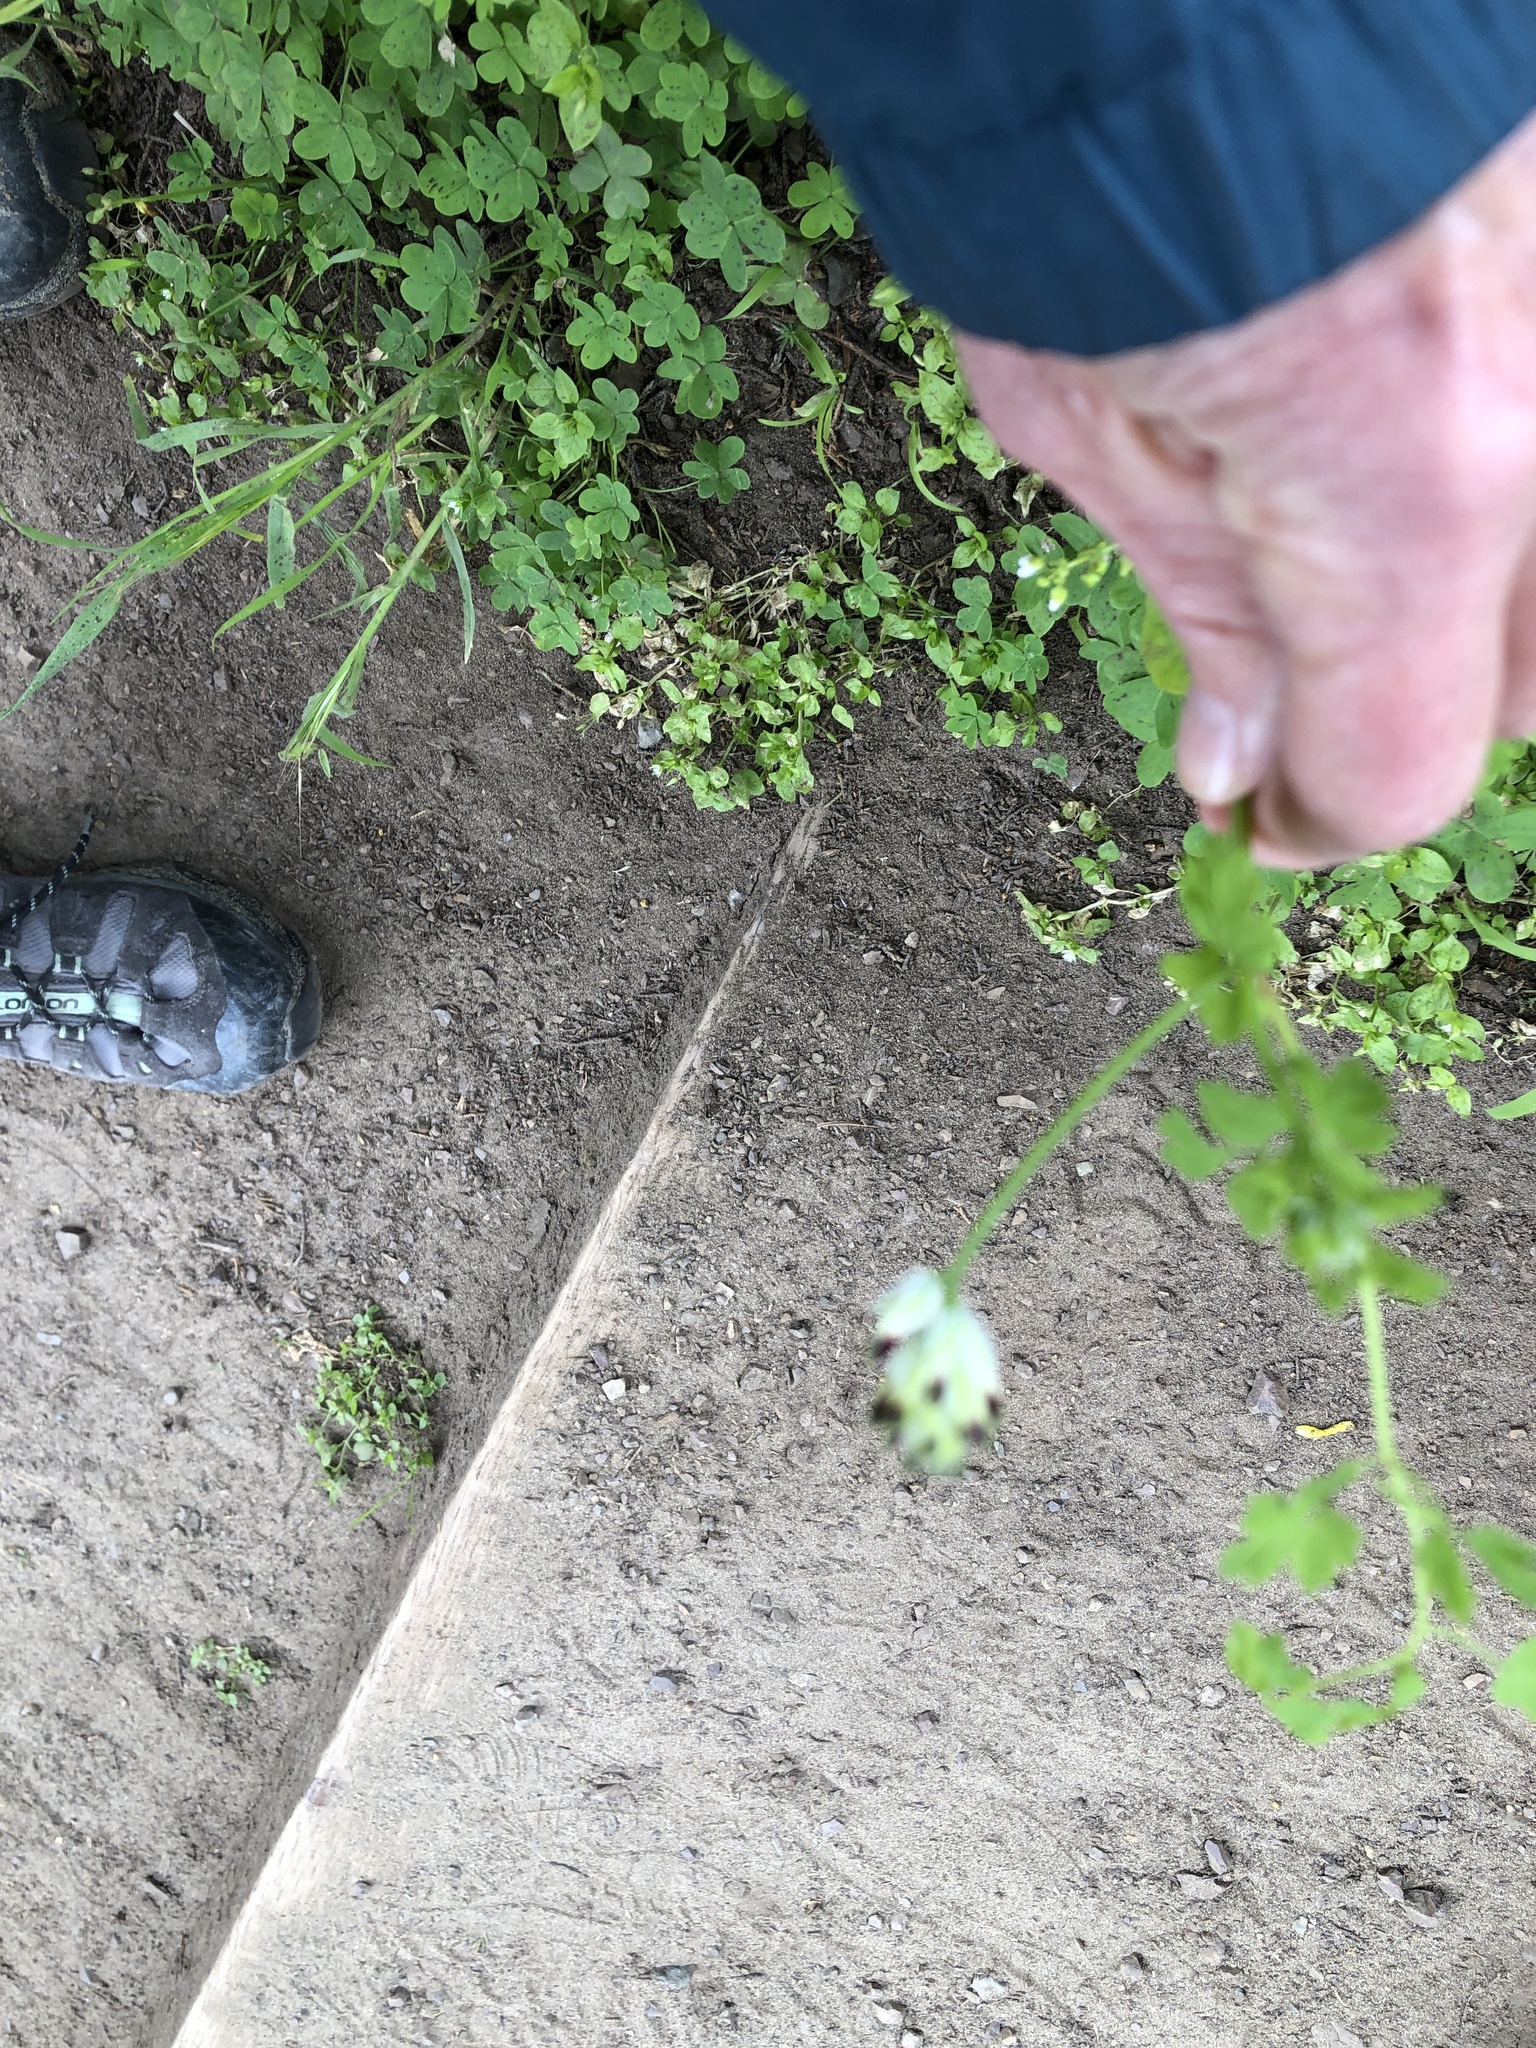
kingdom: Plantae
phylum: Tracheophyta
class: Magnoliopsida
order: Ranunculales
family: Papaveraceae
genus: Fumaria
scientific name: Fumaria capreolata
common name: White ramping-fumitory
